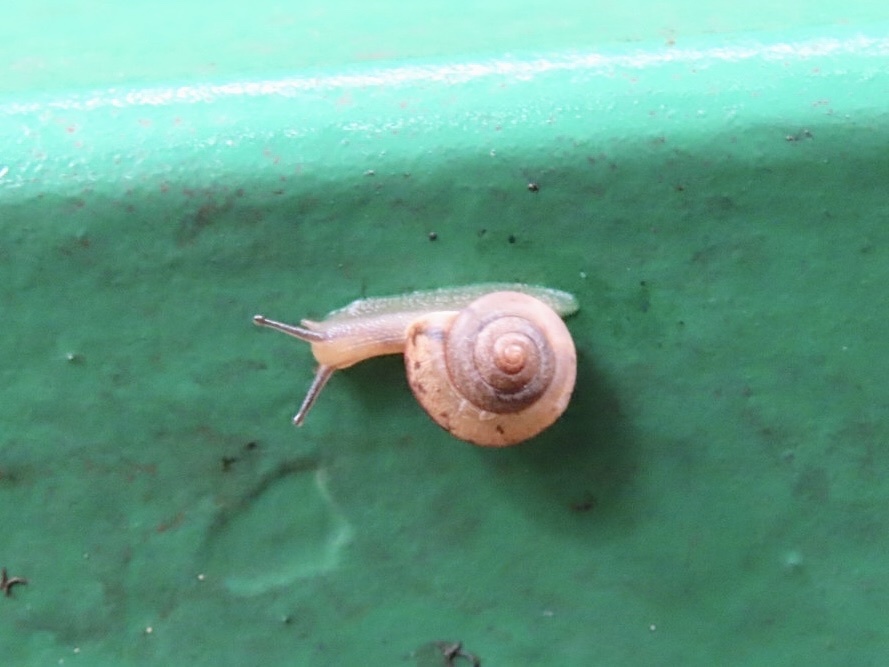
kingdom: Animalia
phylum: Mollusca
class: Gastropoda
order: Stylommatophora
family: Camaenidae
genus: Bradybaena
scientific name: Bradybaena similaris
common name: Asian trampsnail
